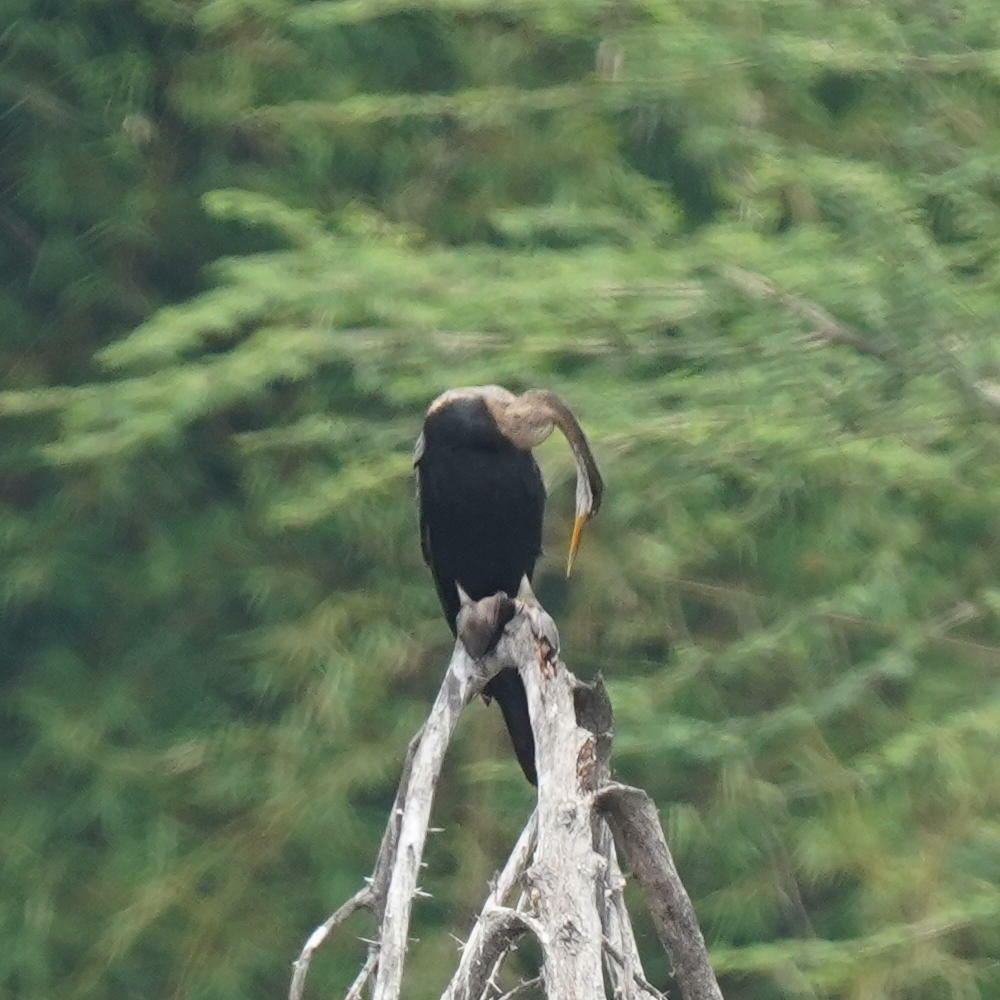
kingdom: Animalia
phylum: Chordata
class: Aves
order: Suliformes
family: Anhingidae
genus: Anhinga
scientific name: Anhinga melanogaster
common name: Oriental darter
